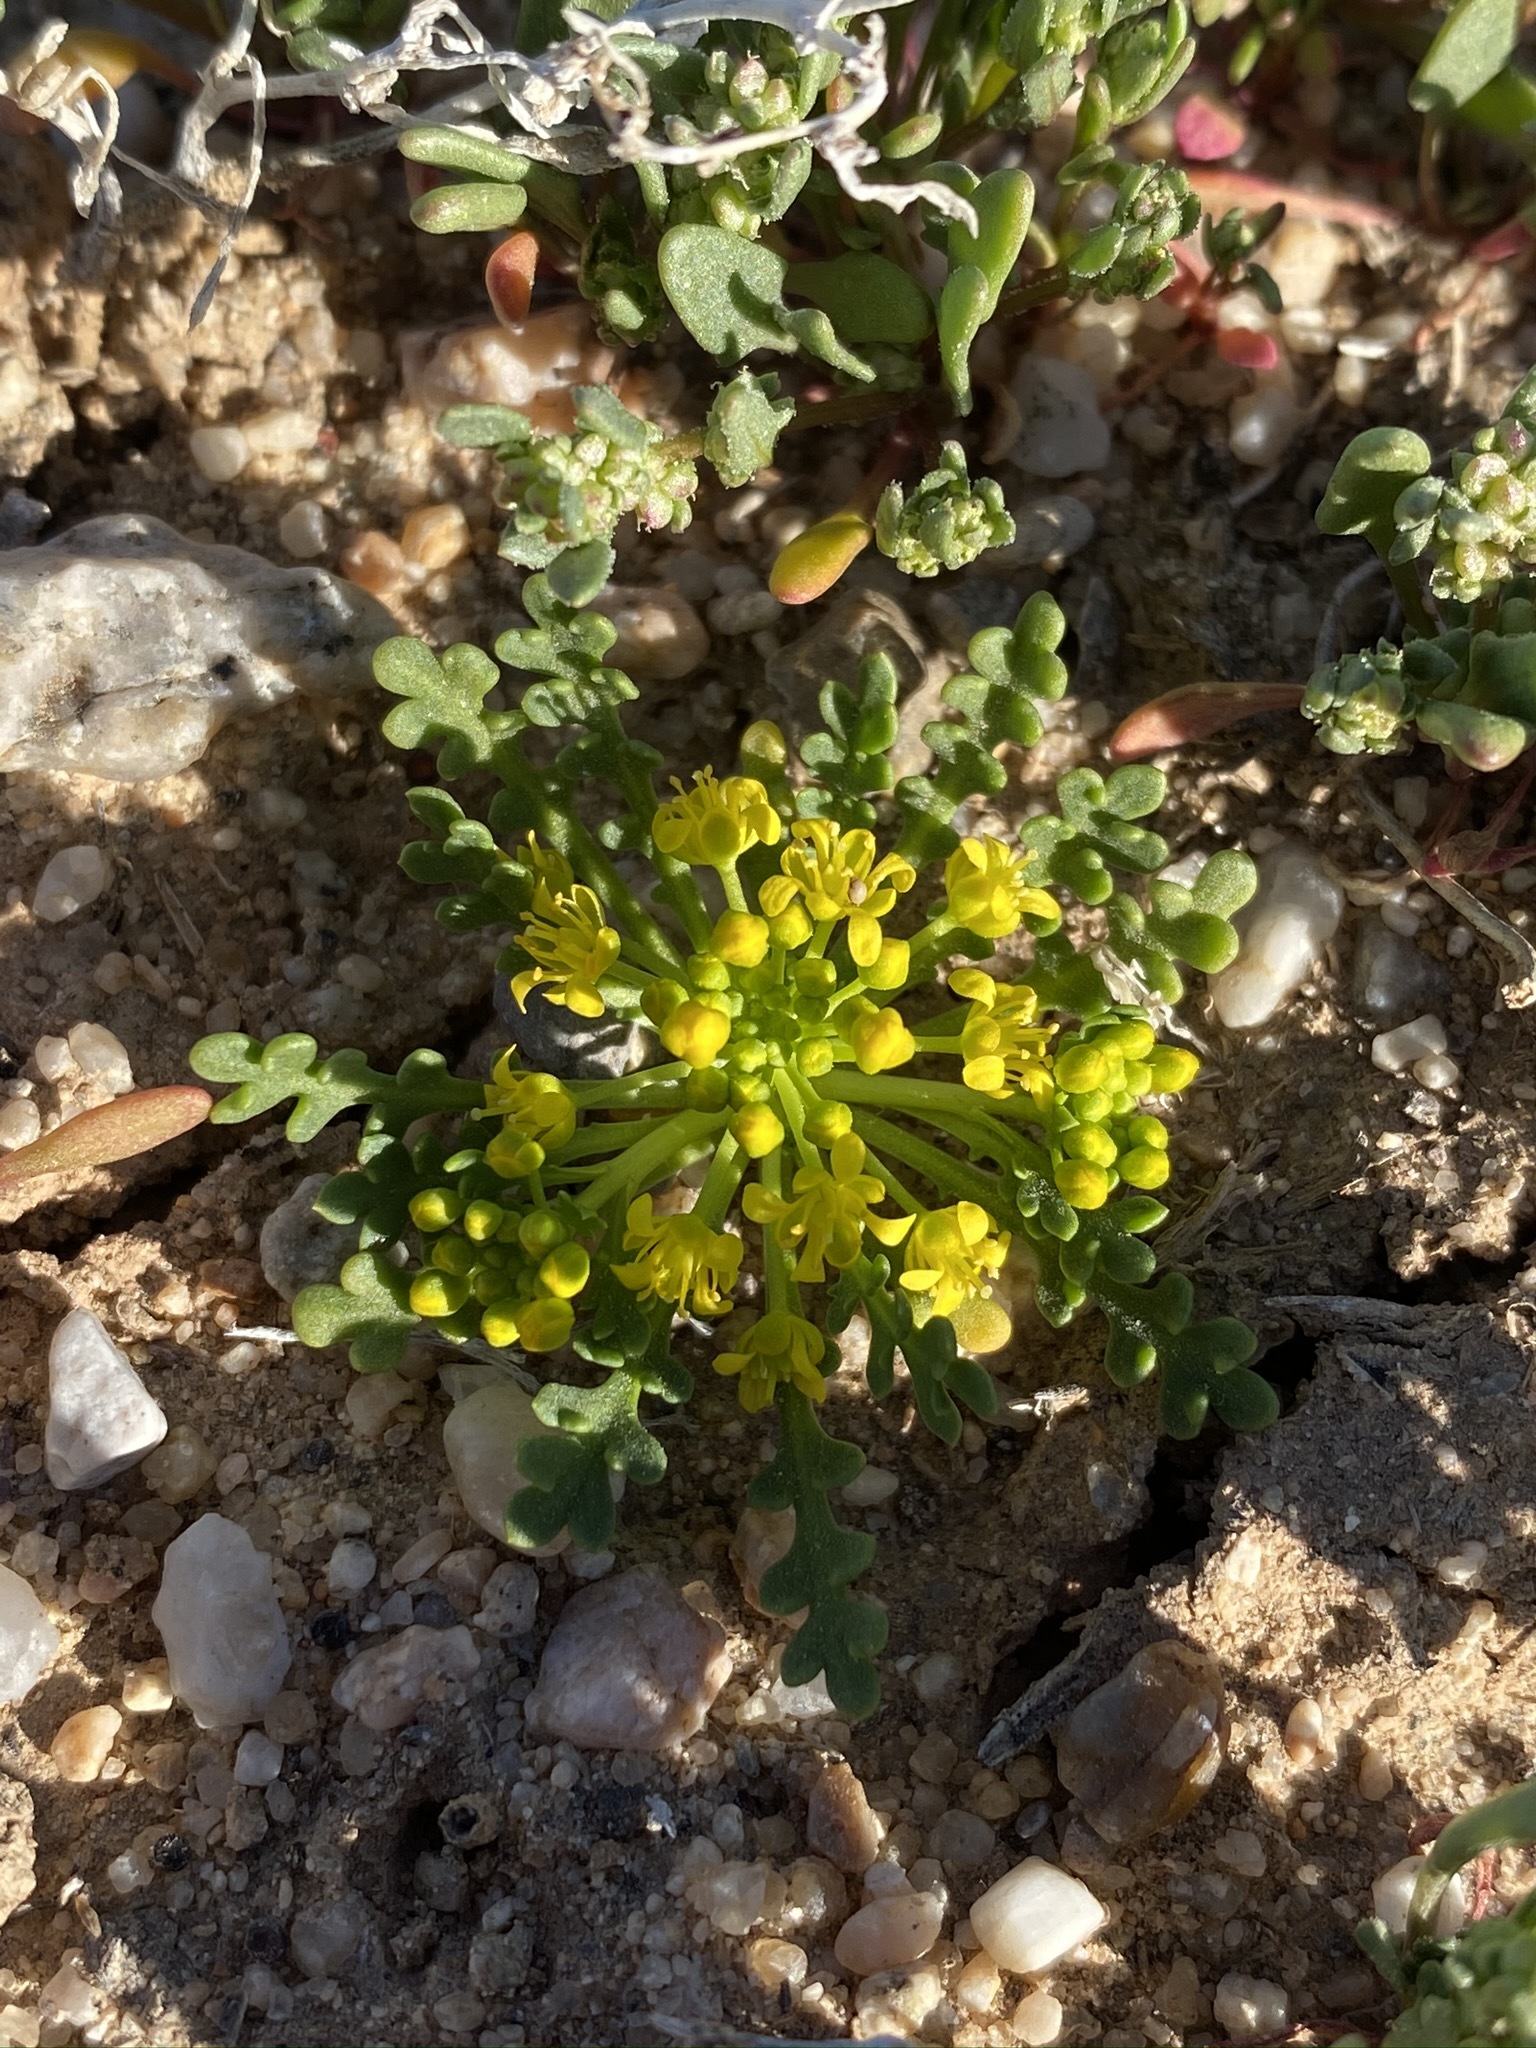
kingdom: Plantae
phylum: Tracheophyta
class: Magnoliopsida
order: Brassicales
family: Brassicaceae
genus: Lepidium
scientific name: Lepidium flavum
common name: Yellow pepperwort
